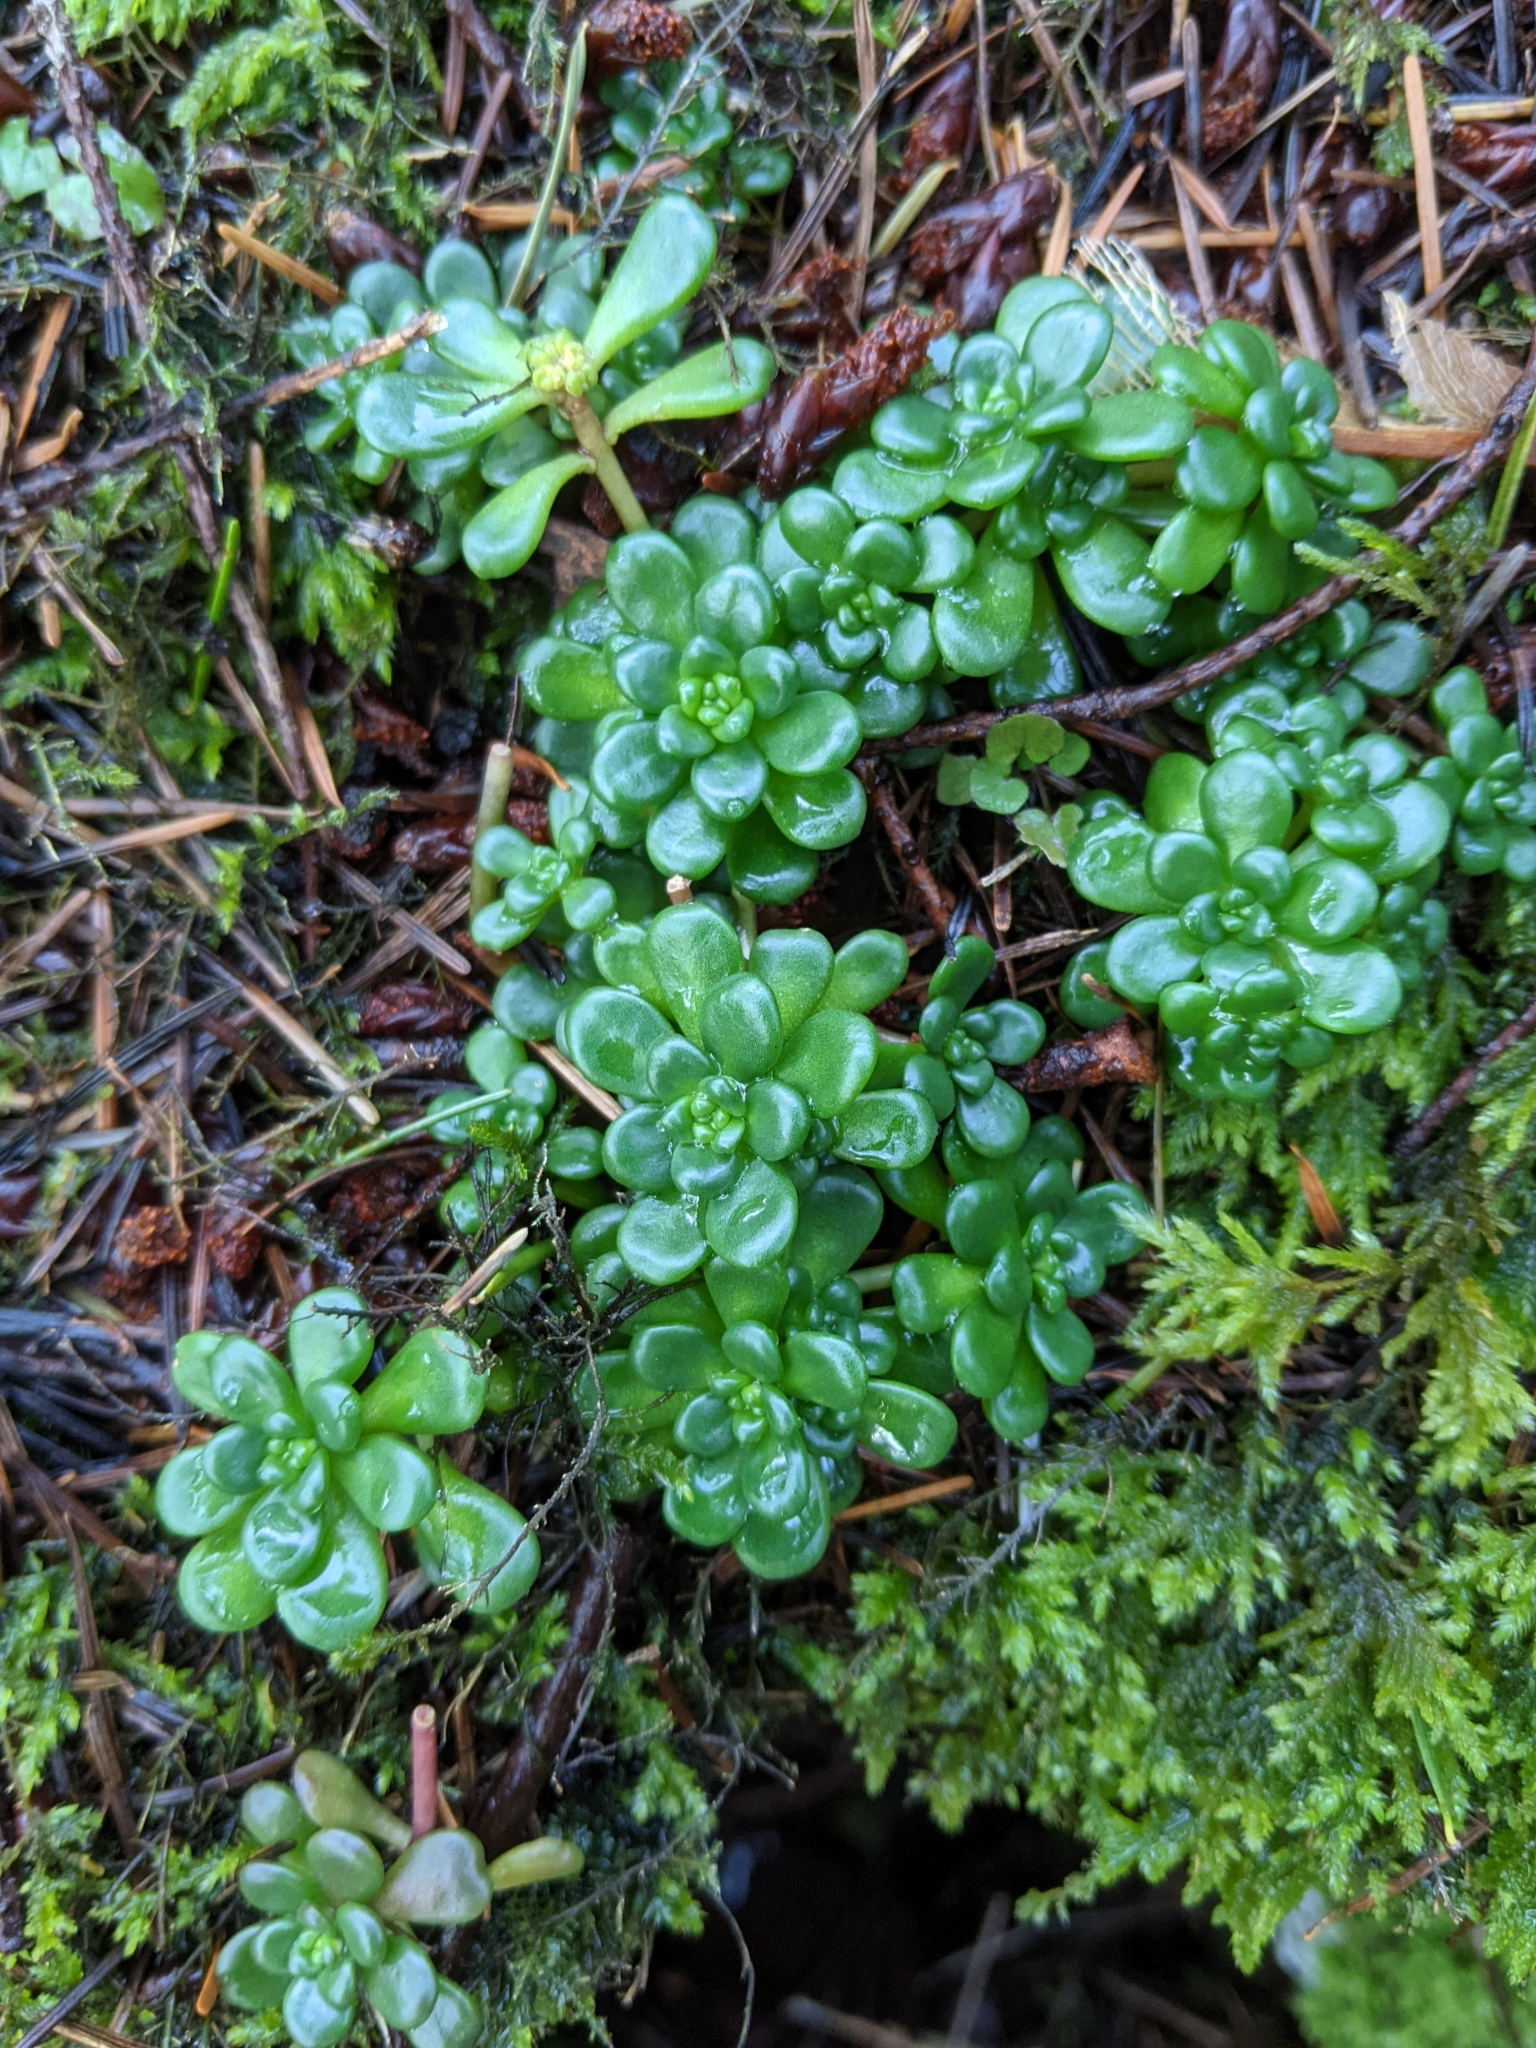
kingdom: Plantae
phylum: Tracheophyta
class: Magnoliopsida
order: Saxifragales
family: Crassulaceae
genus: Sedum
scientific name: Sedum oreganum
